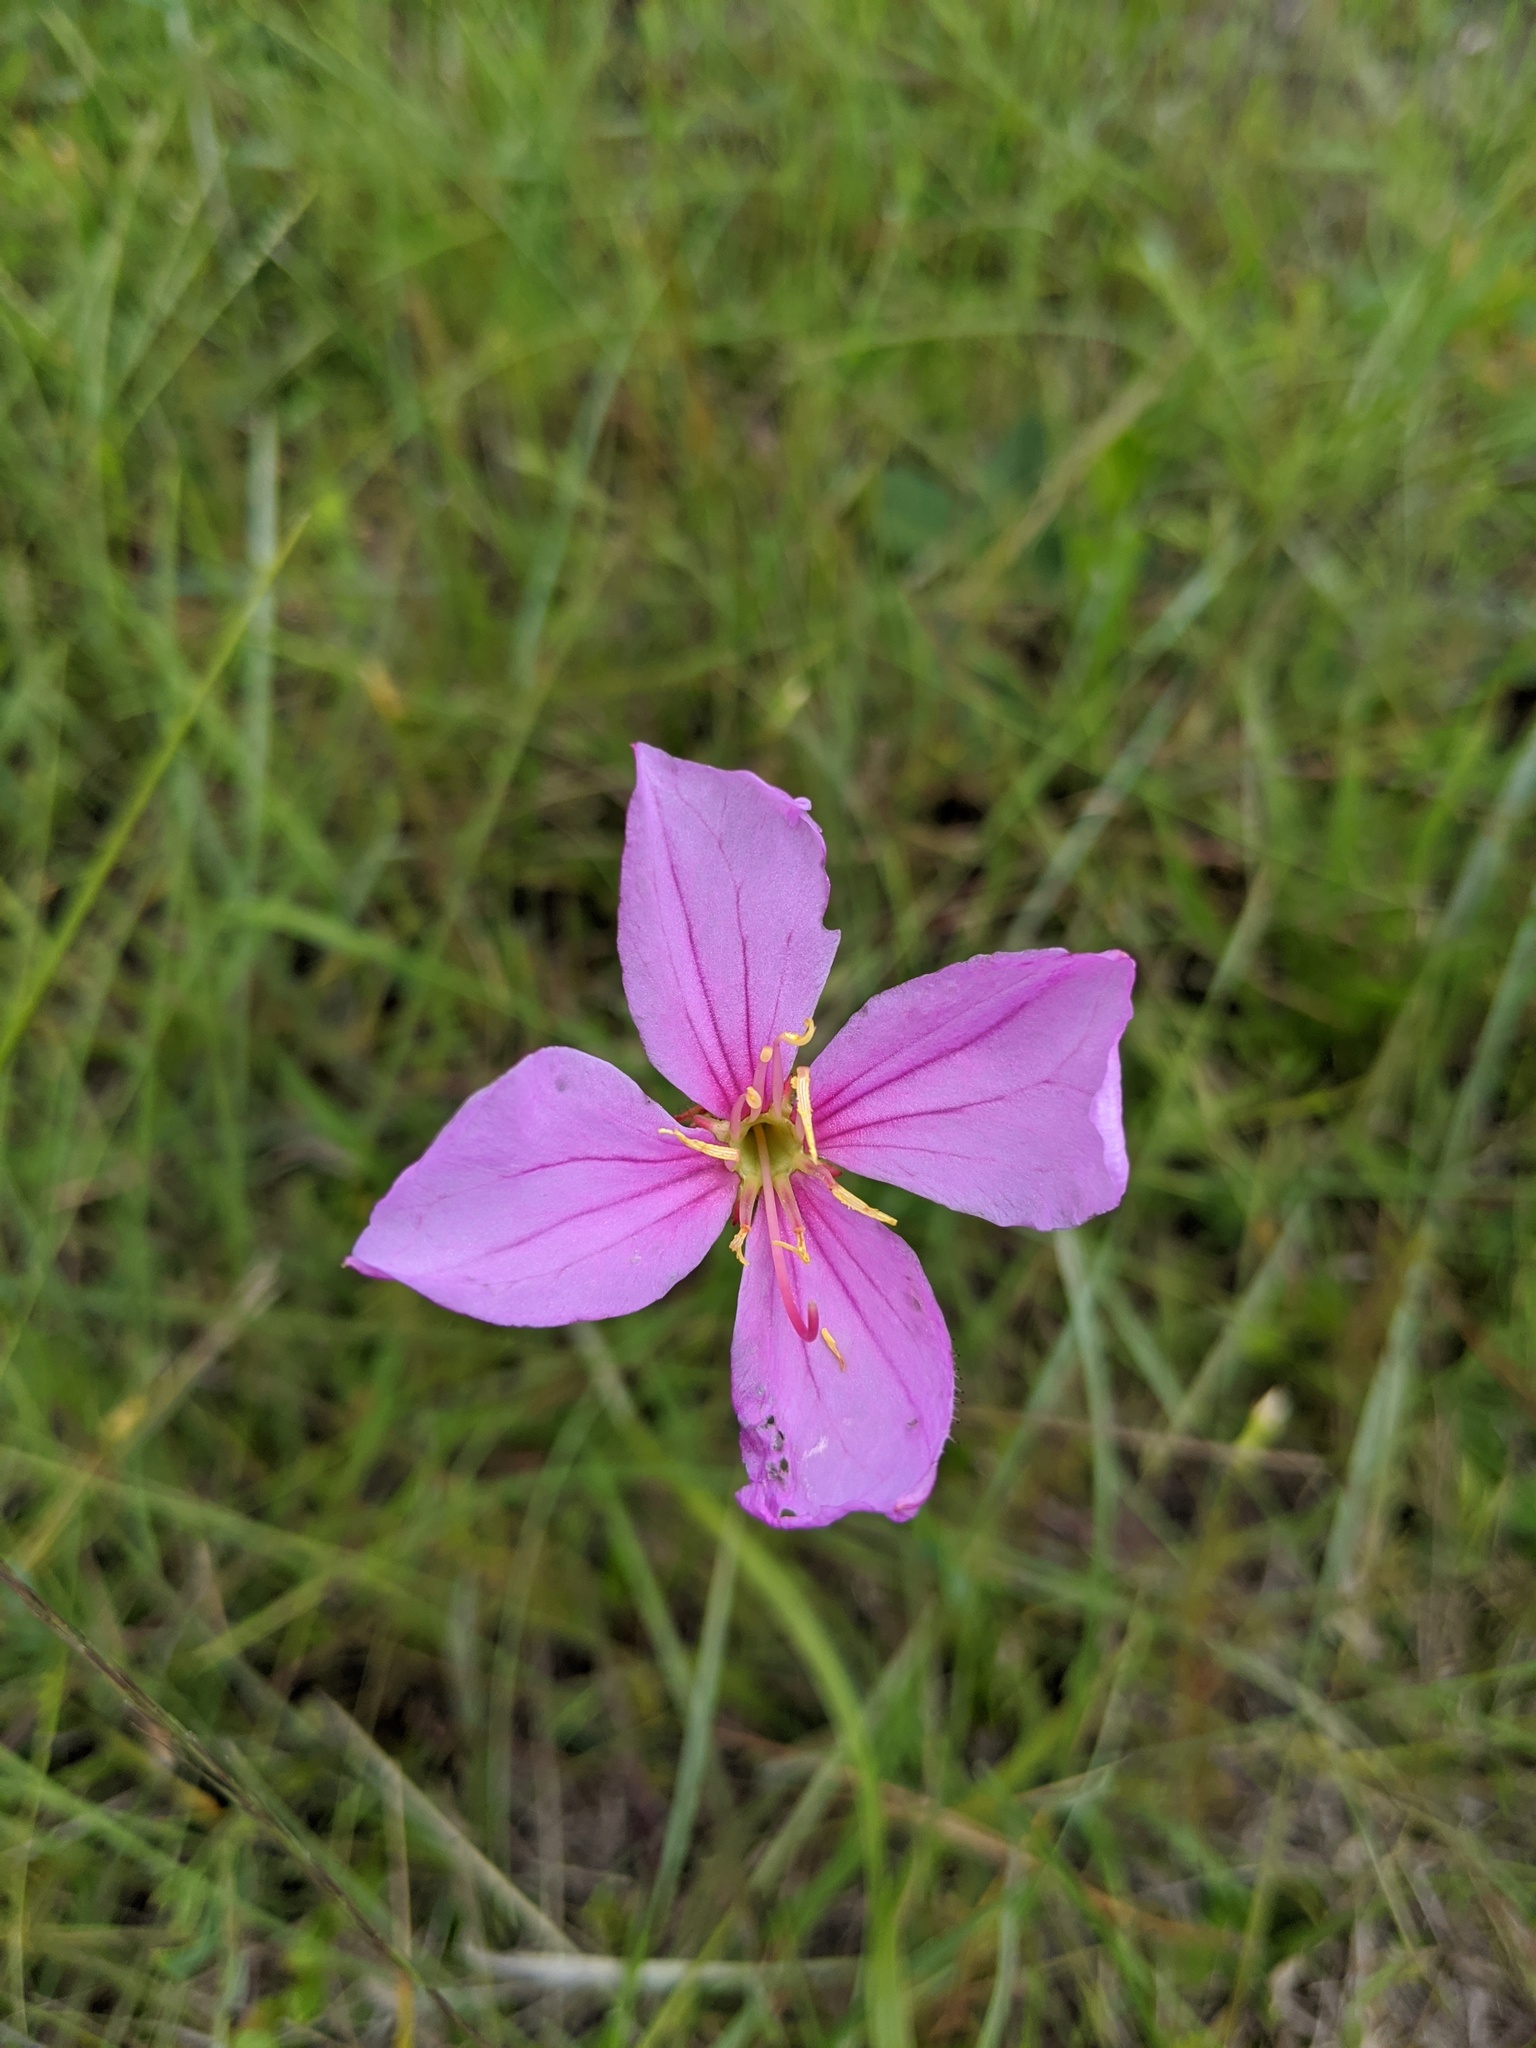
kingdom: Plantae
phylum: Tracheophyta
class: Magnoliopsida
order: Myrtales
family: Melastomataceae
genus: Rhexia
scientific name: Rhexia alifanus
